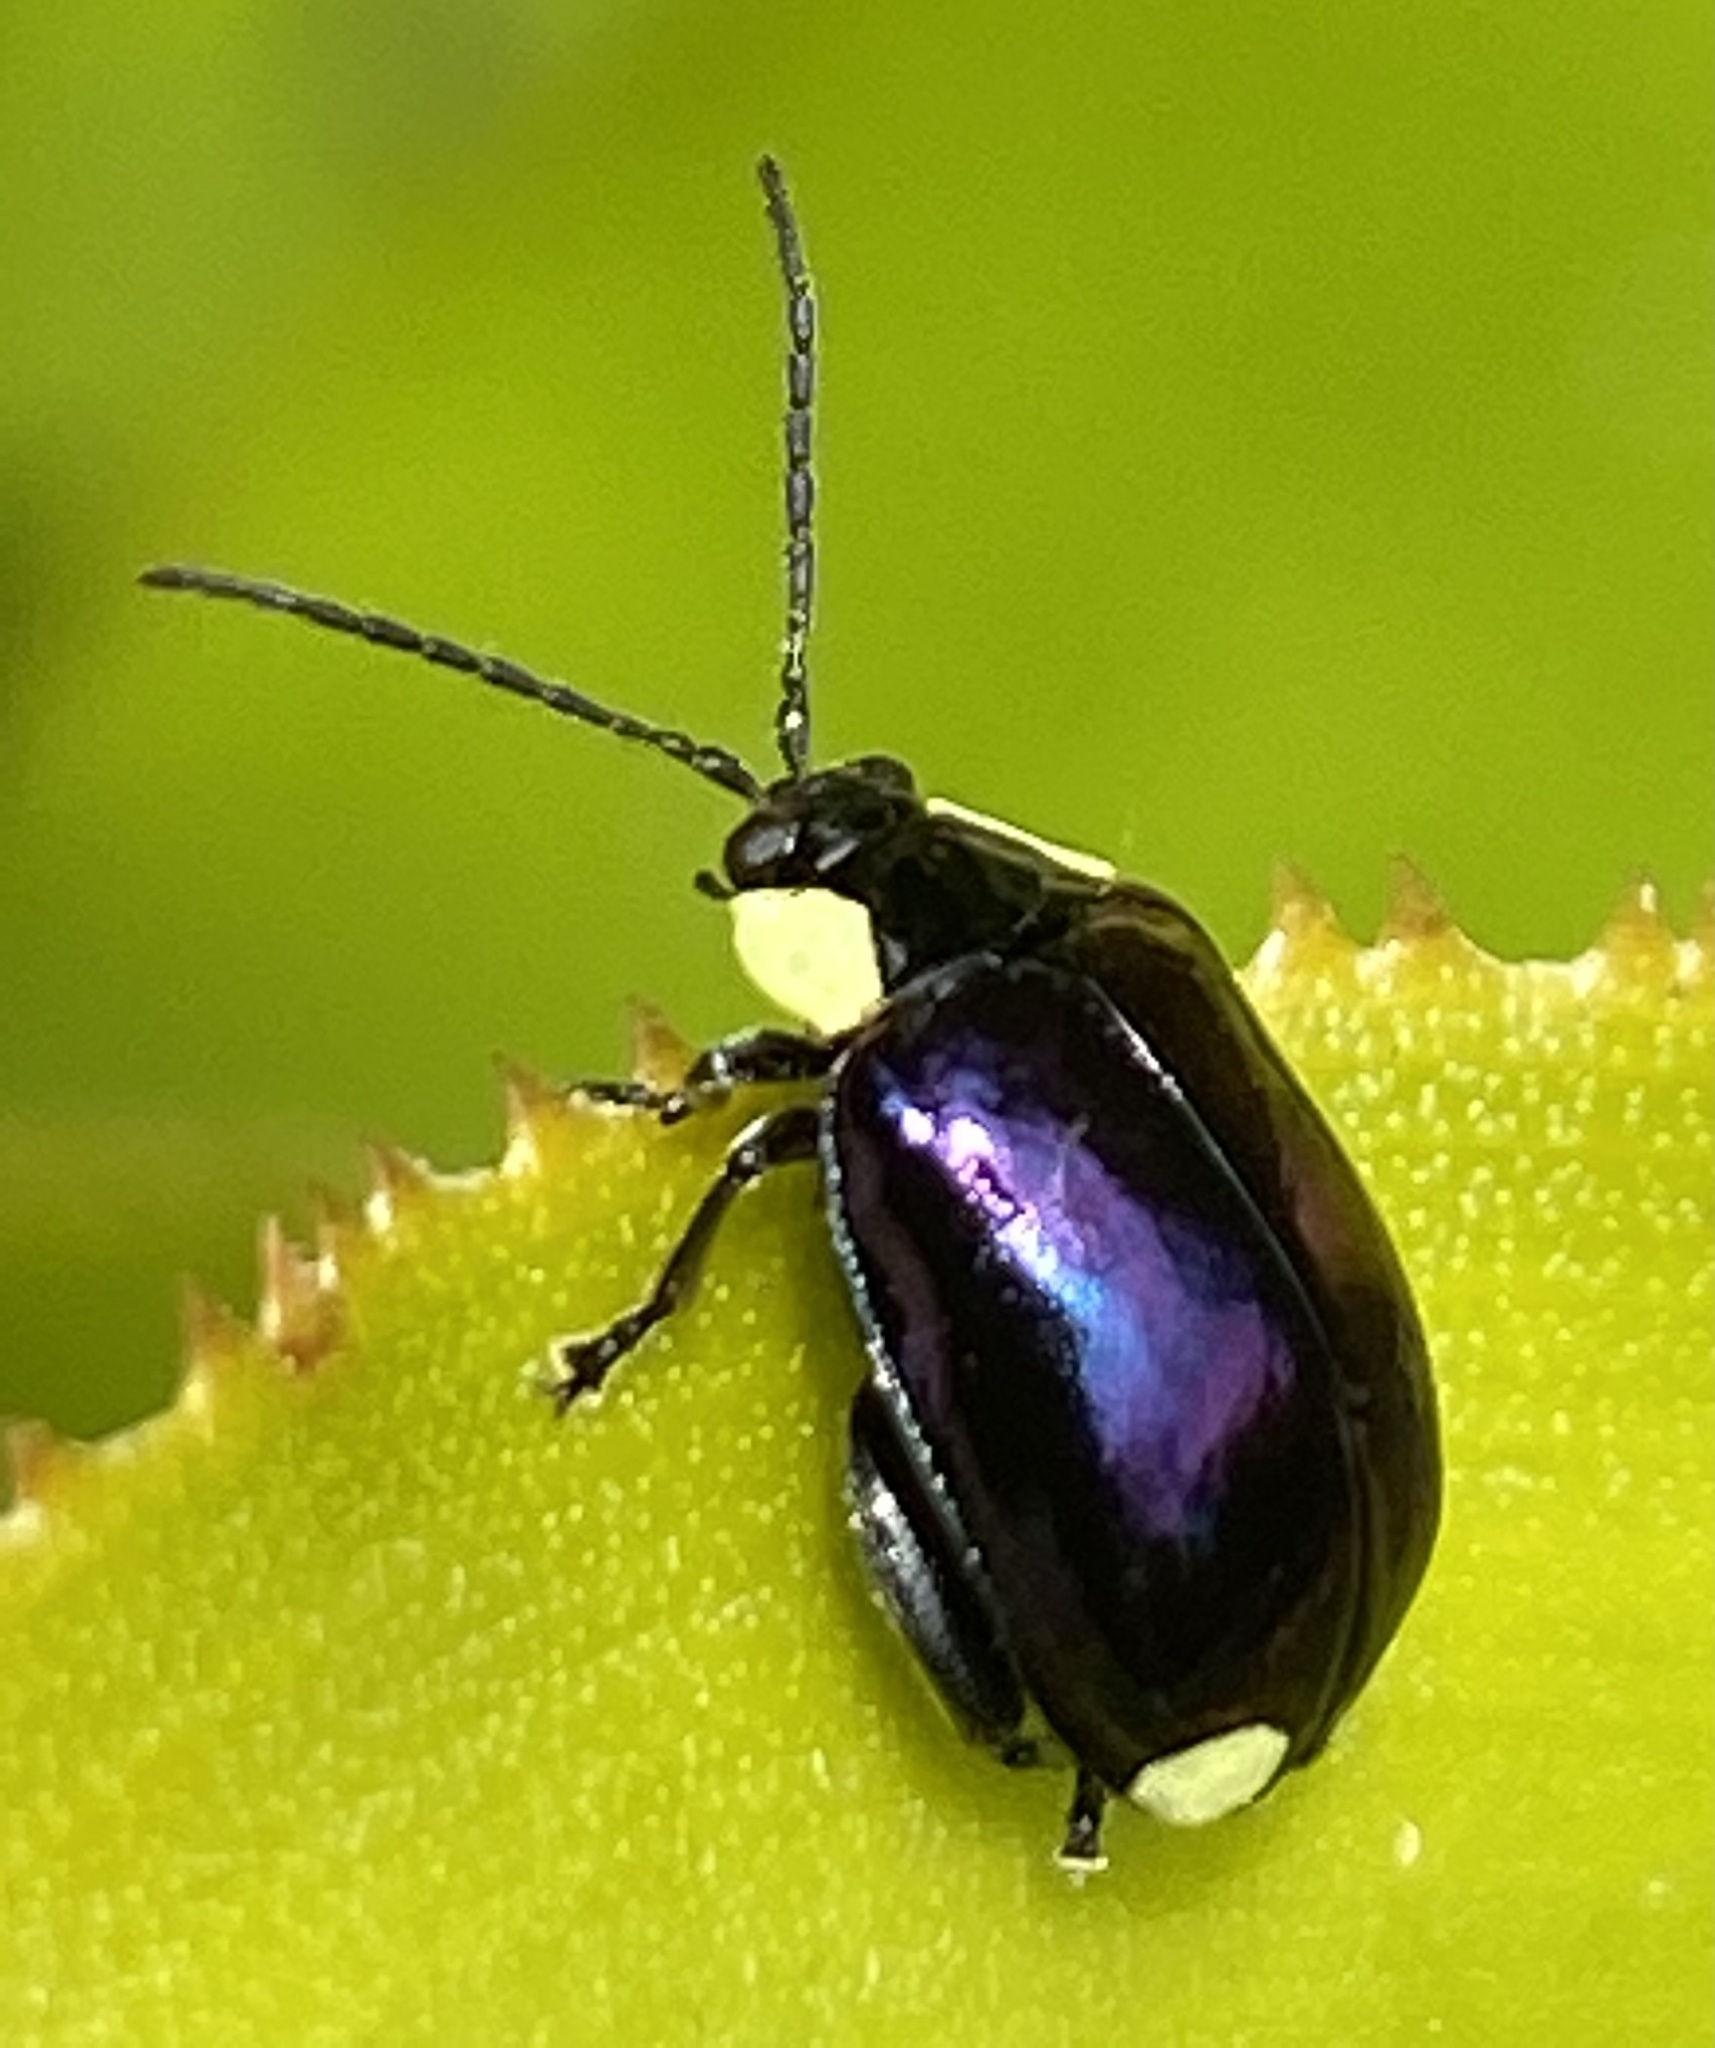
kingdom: Animalia
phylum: Arthropoda
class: Insecta
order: Coleoptera
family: Chrysomelidae
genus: Alagoasa
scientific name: Alagoasa
